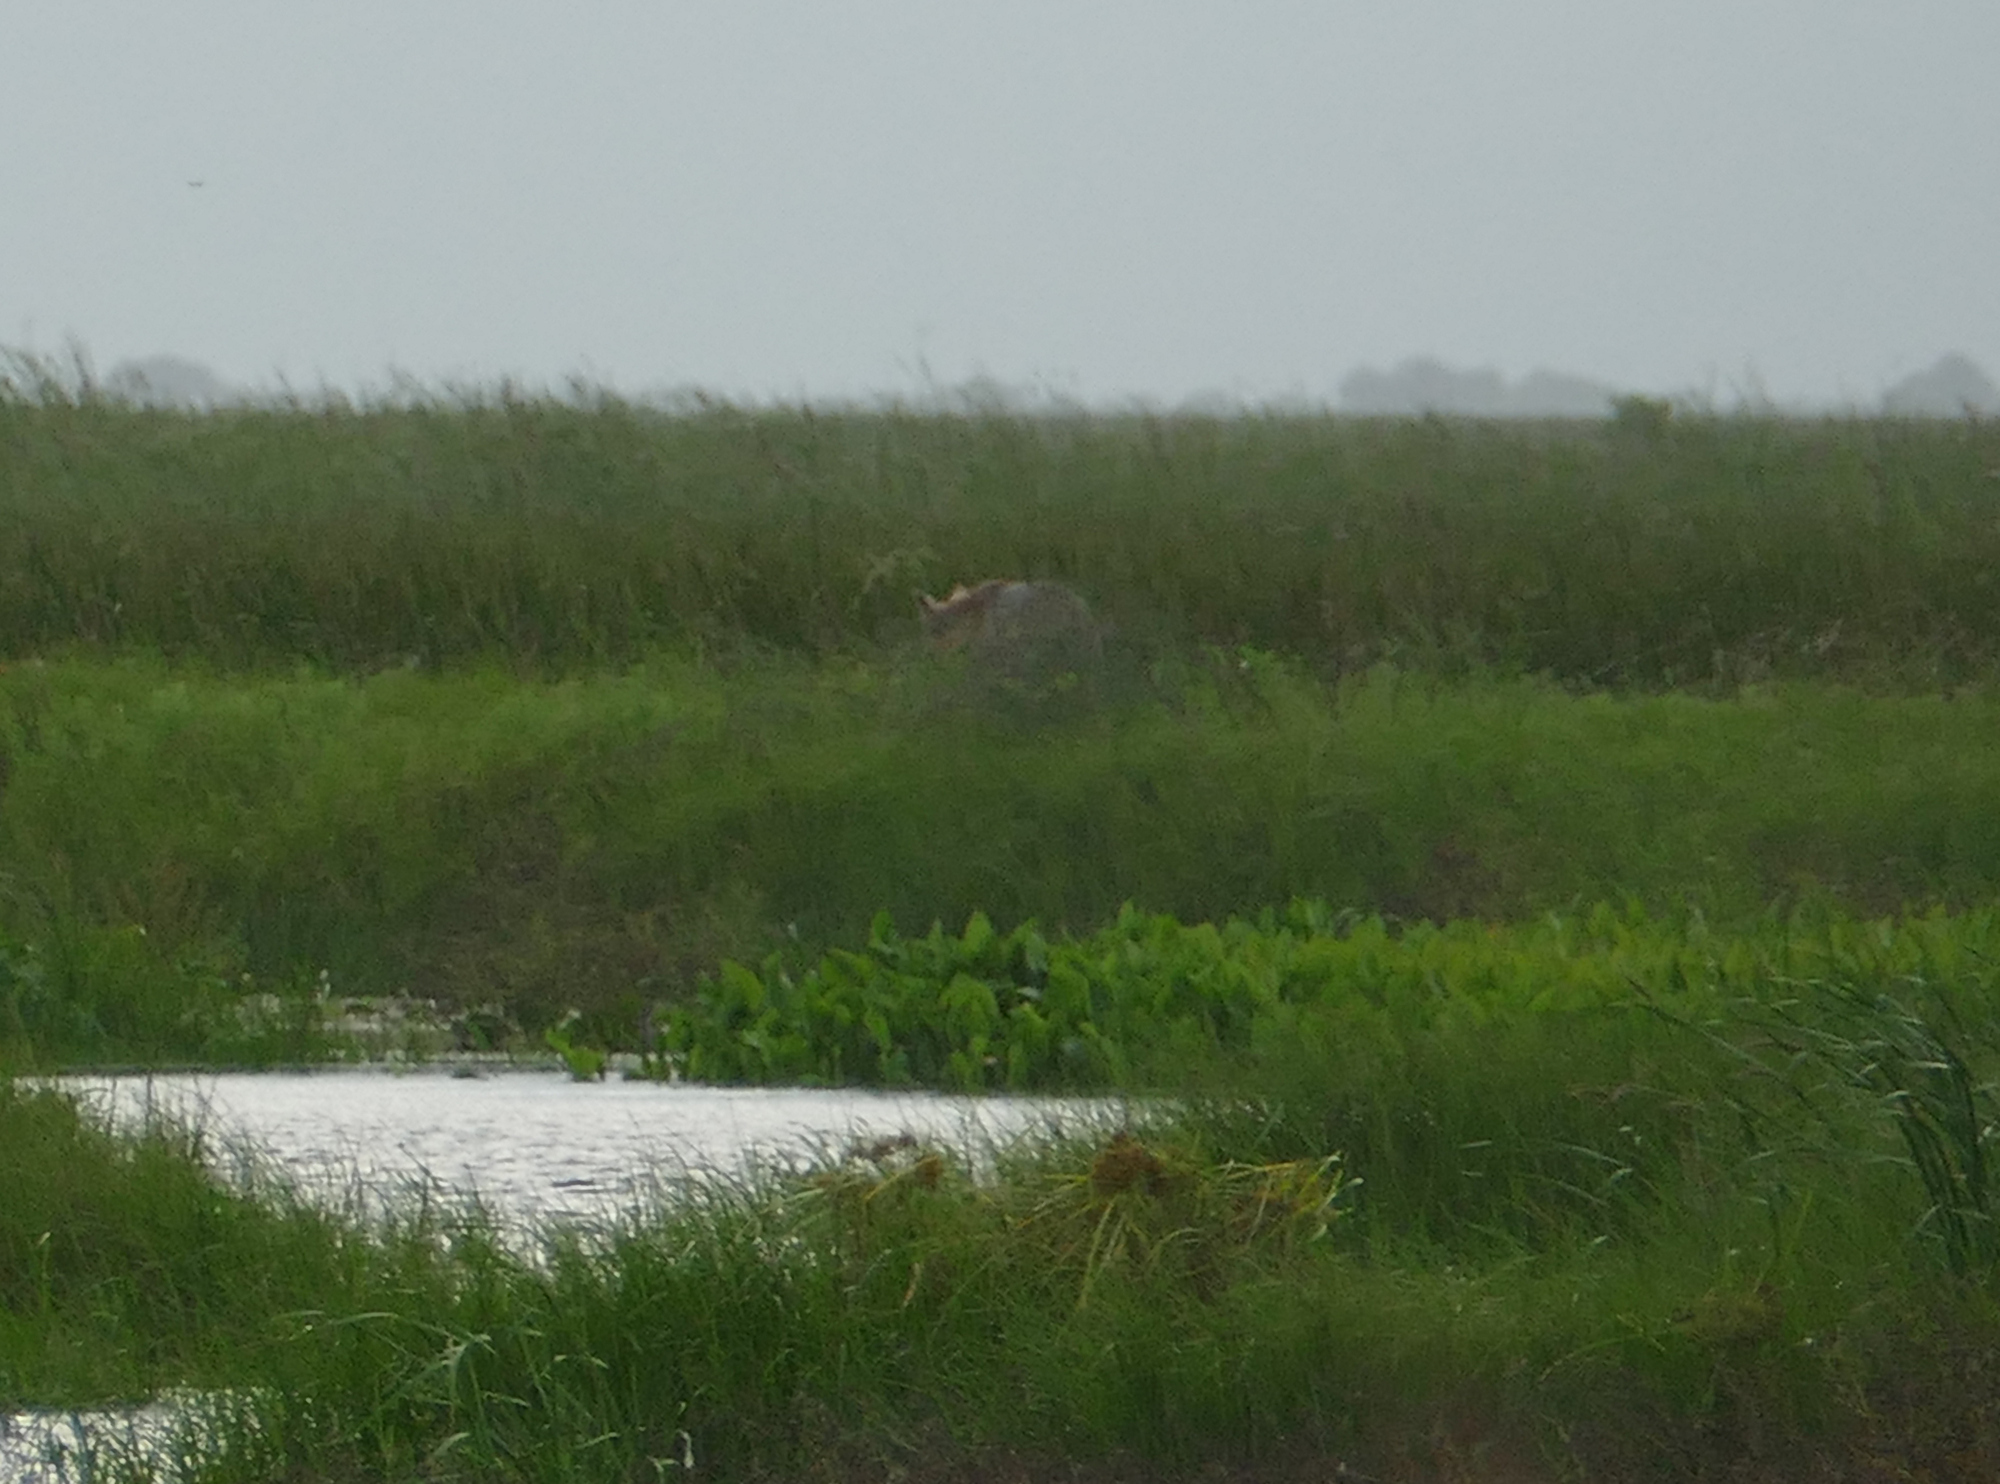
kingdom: Animalia
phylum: Chordata
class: Mammalia
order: Carnivora
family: Canidae
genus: Canis
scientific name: Canis latrans
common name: Coyote
